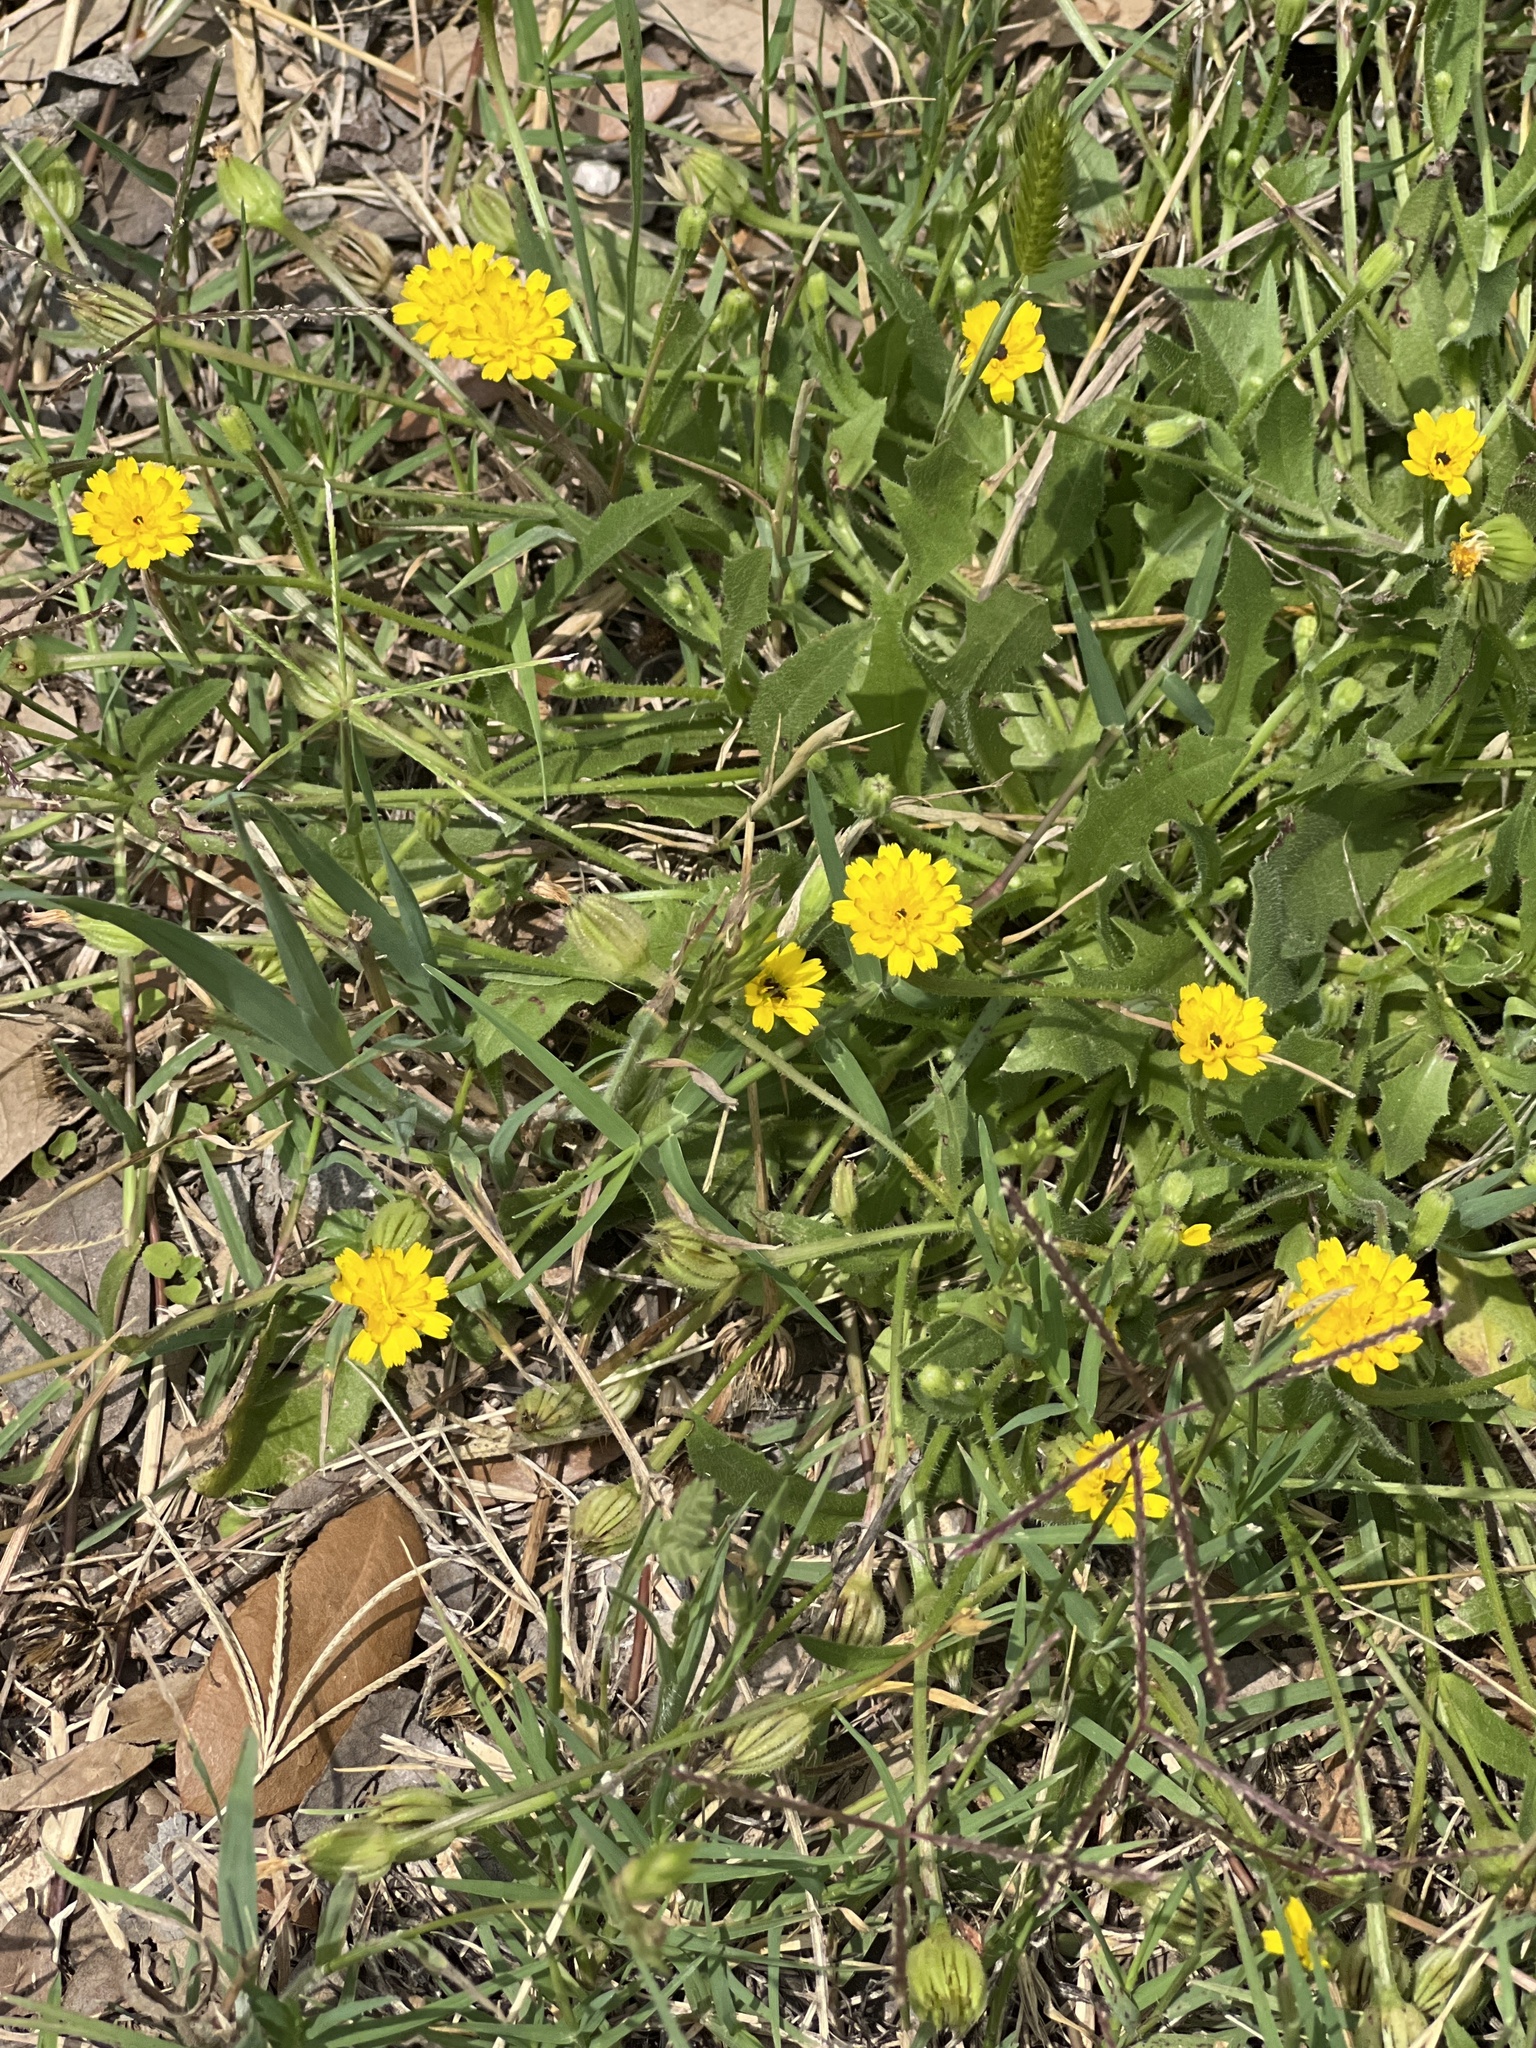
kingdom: Plantae
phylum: Tracheophyta
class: Magnoliopsida
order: Asterales
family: Asteraceae
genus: Hedypnois
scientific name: Hedypnois rhagadioloides
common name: Cretan weed
